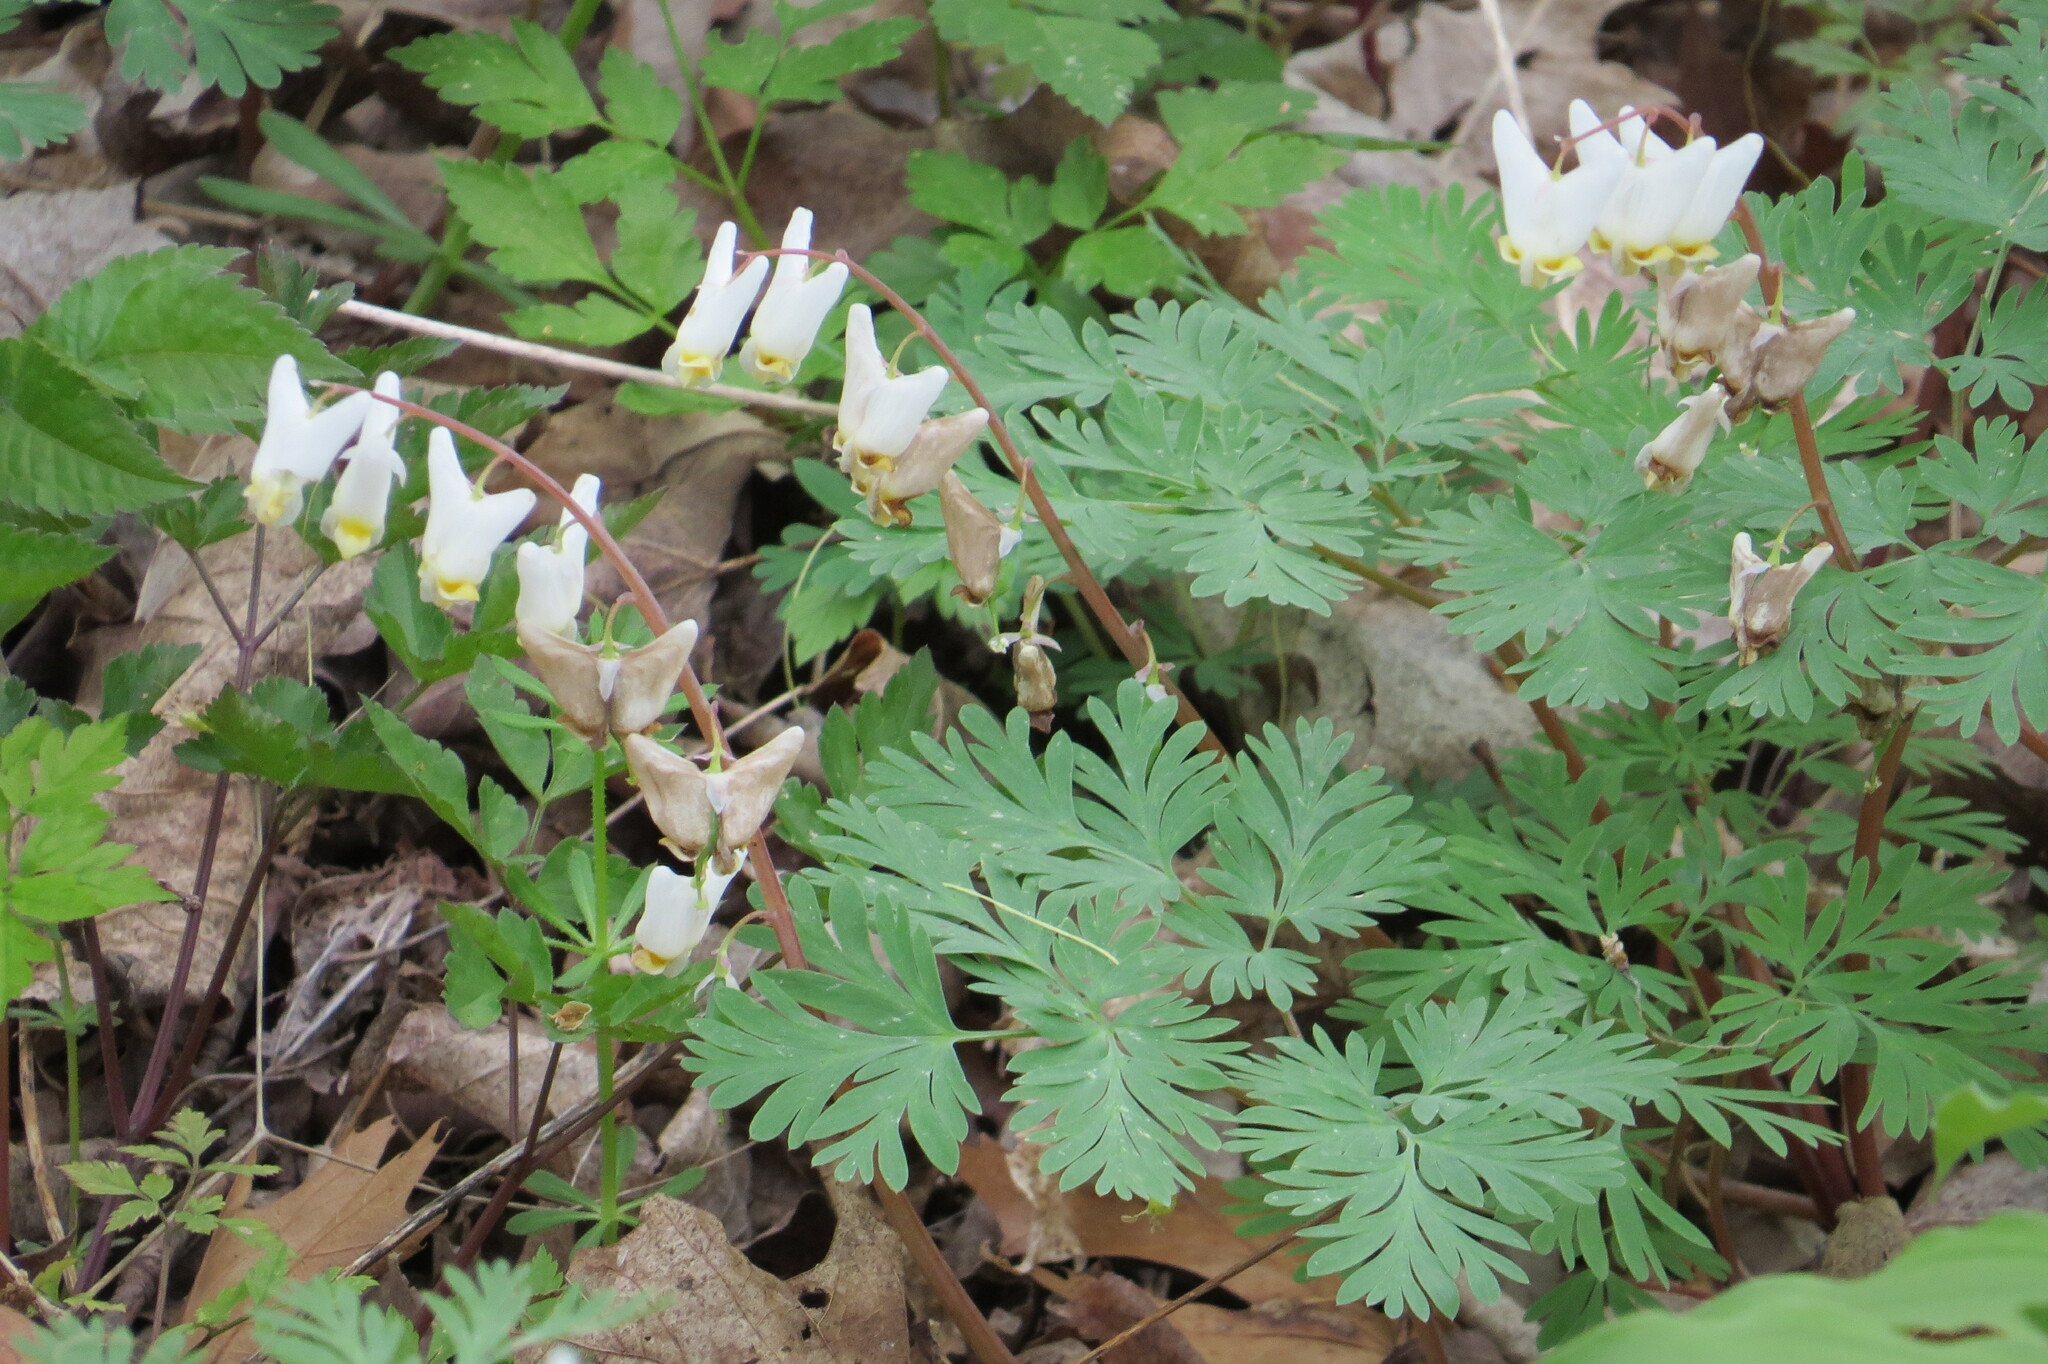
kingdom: Plantae
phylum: Tracheophyta
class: Magnoliopsida
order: Ranunculales
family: Papaveraceae
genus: Dicentra
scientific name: Dicentra cucullaria
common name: Dutchman's breeches
